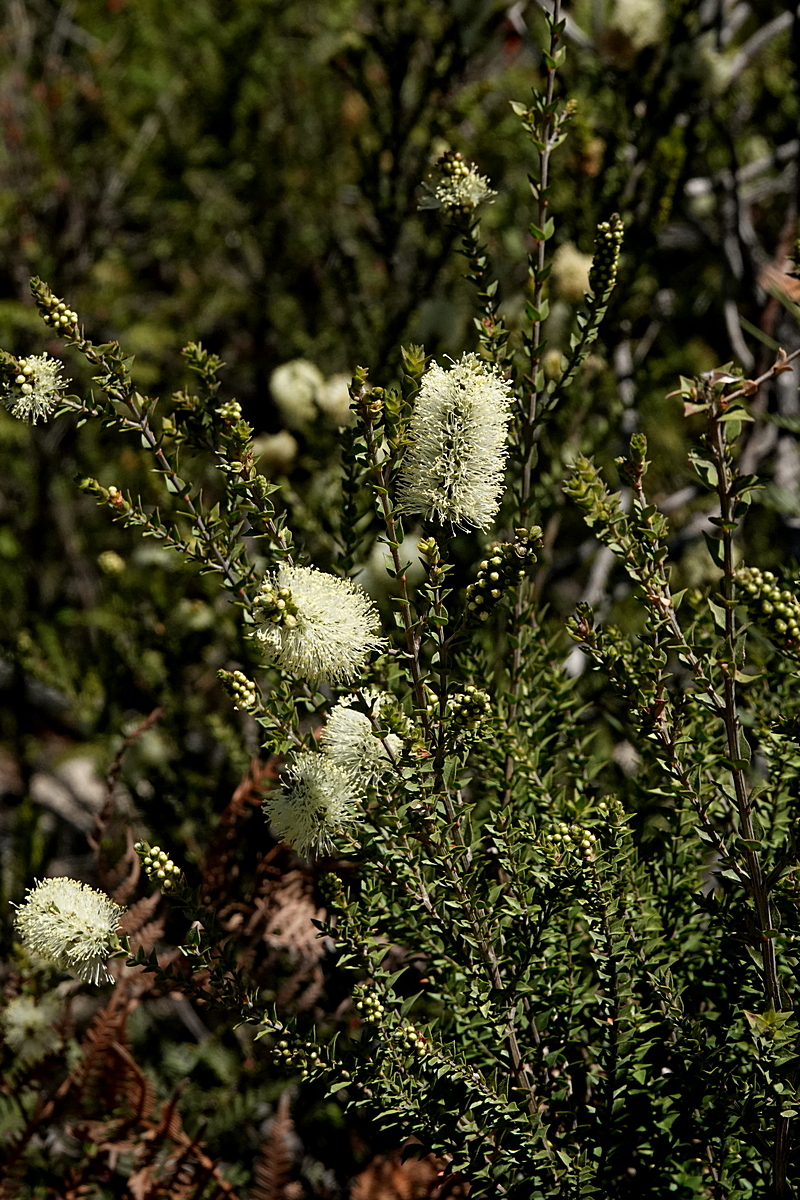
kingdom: Plantae
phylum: Tracheophyta
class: Magnoliopsida
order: Myrtales
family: Myrtaceae
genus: Melaleuca
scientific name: Melaleuca squarrosa
